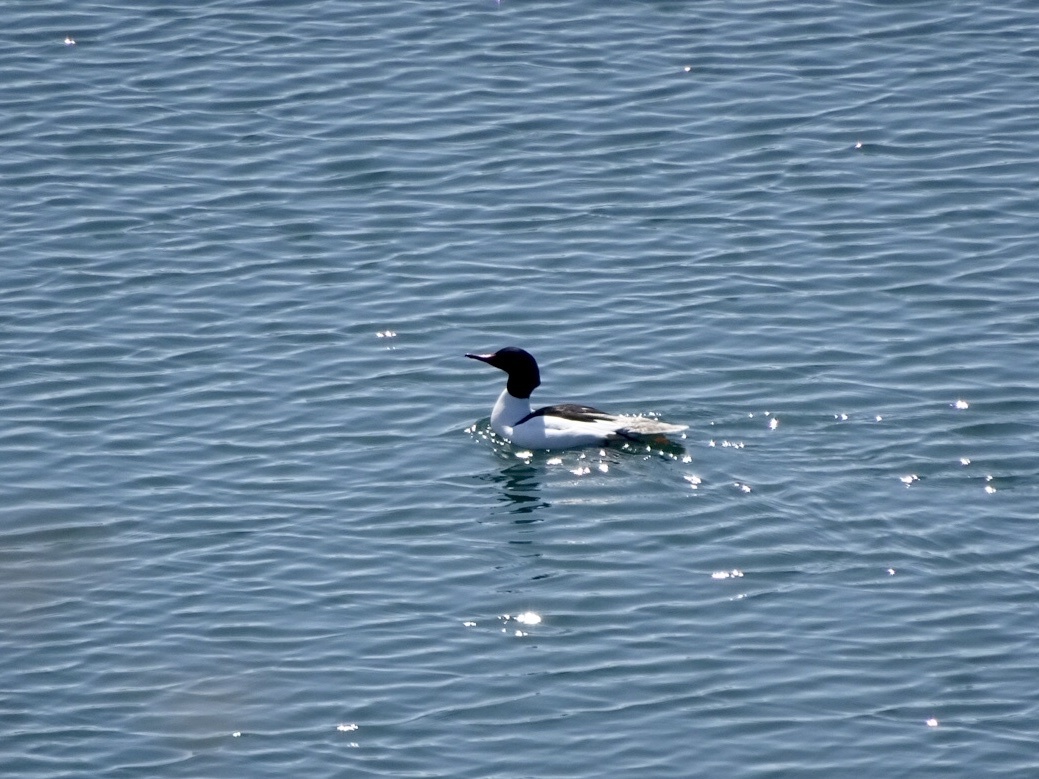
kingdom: Animalia
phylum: Chordata
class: Aves
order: Anseriformes
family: Anatidae
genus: Mergus
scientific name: Mergus merganser
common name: Common merganser
